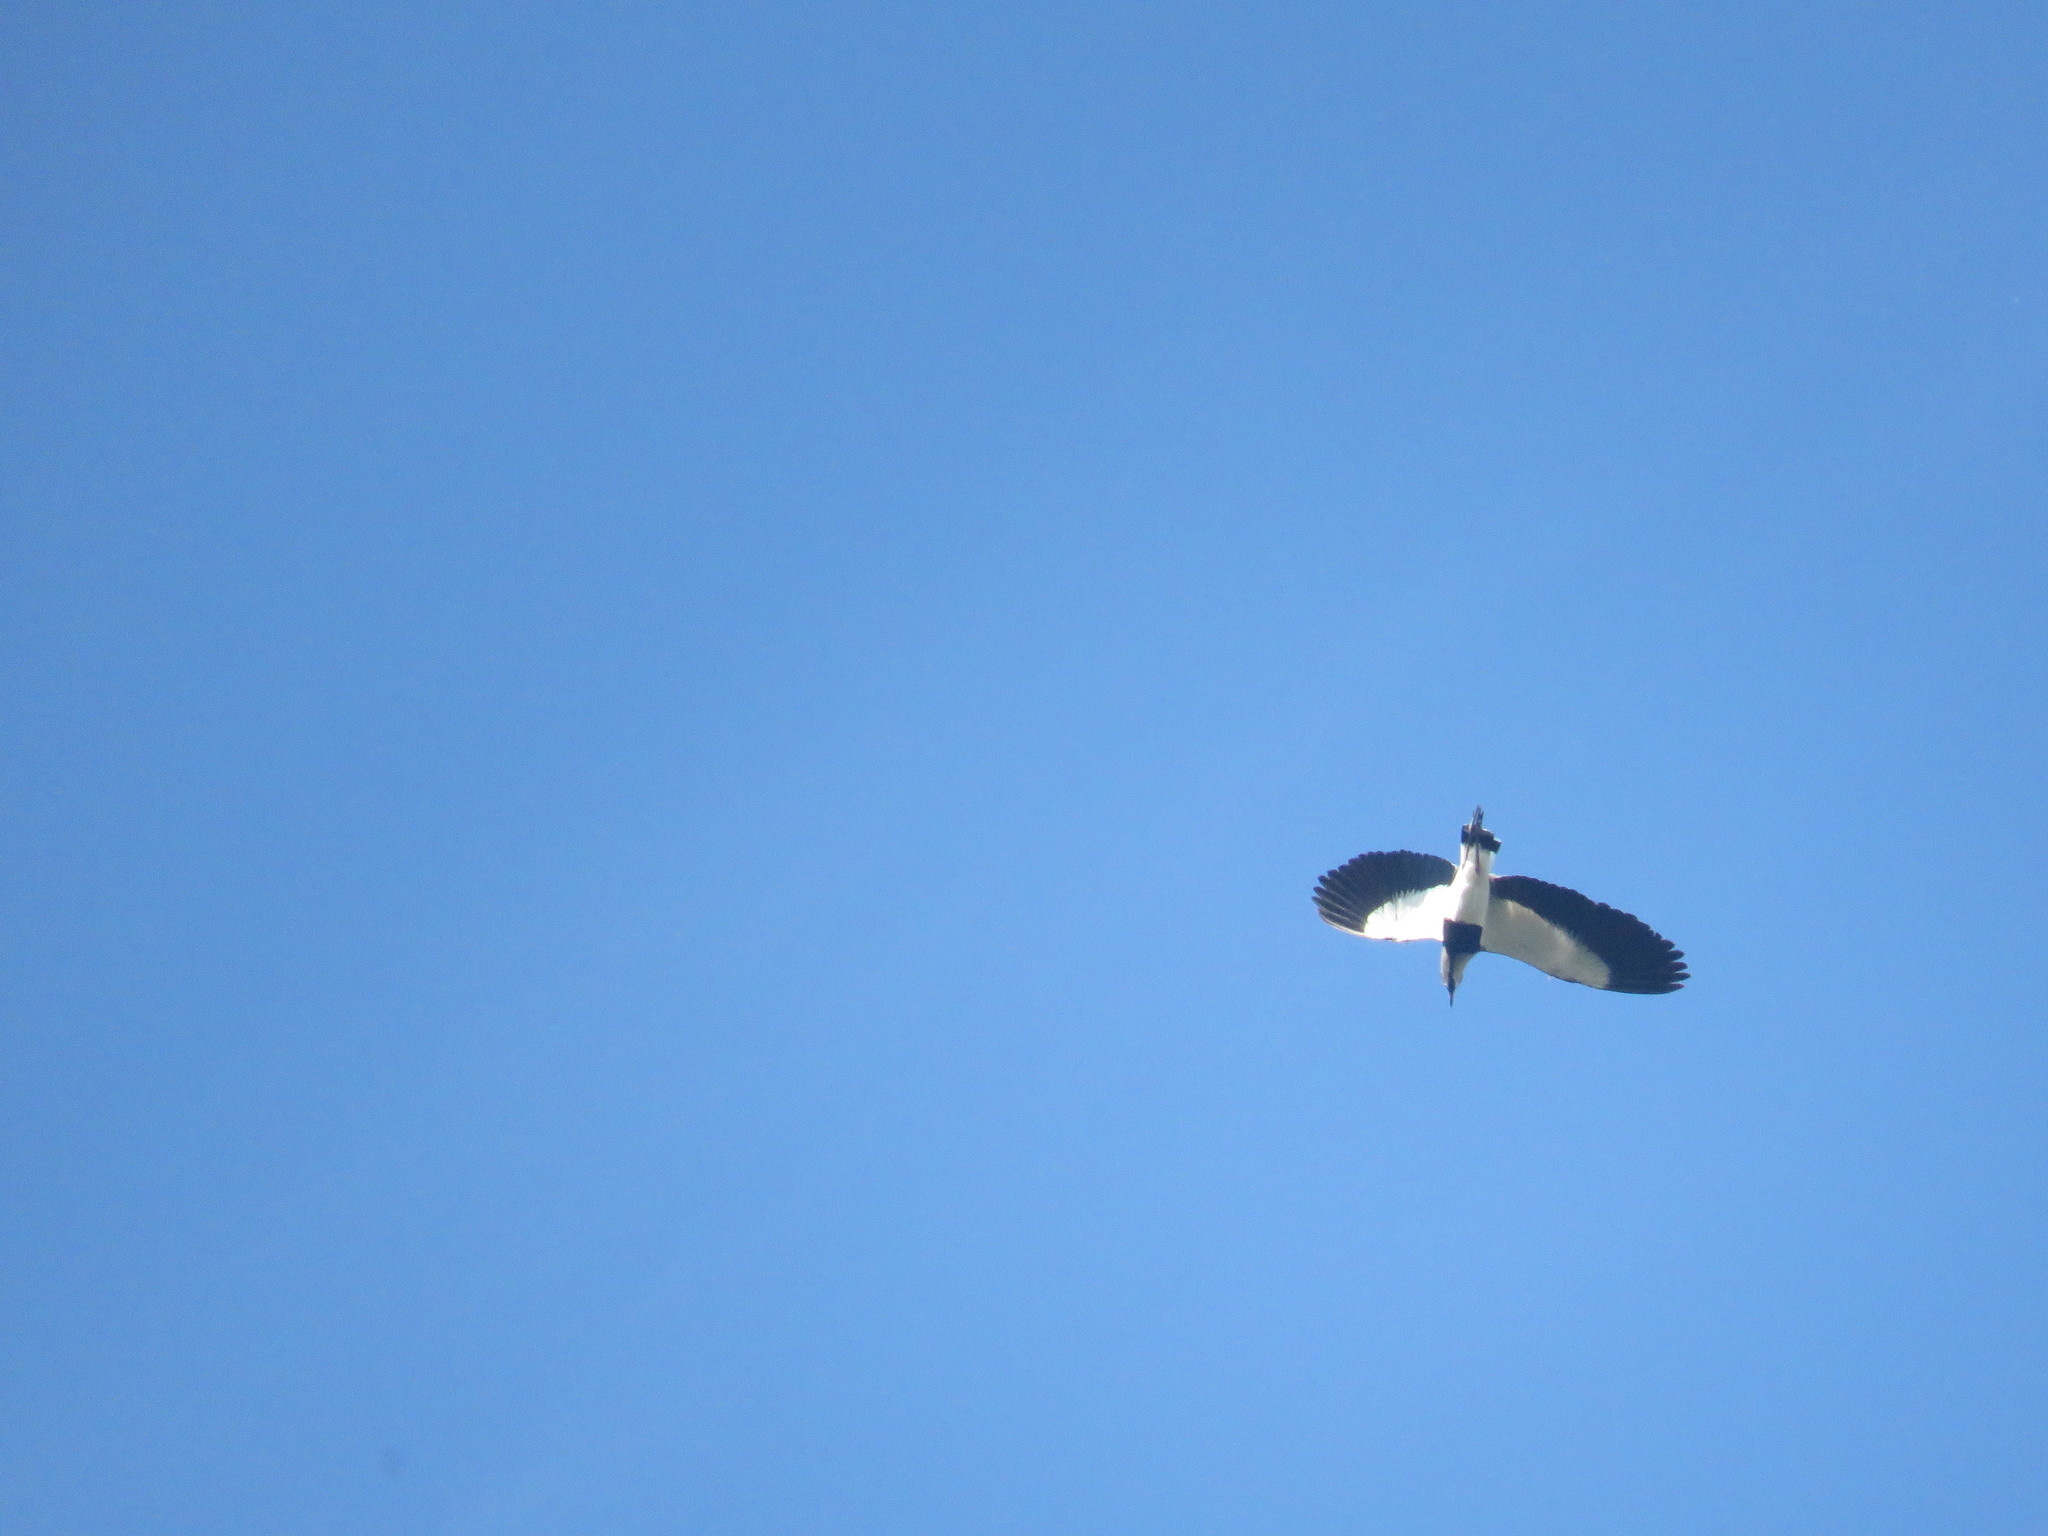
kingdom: Animalia
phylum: Chordata
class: Aves
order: Charadriiformes
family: Charadriidae
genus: Vanellus
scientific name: Vanellus chilensis
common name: Southern lapwing
